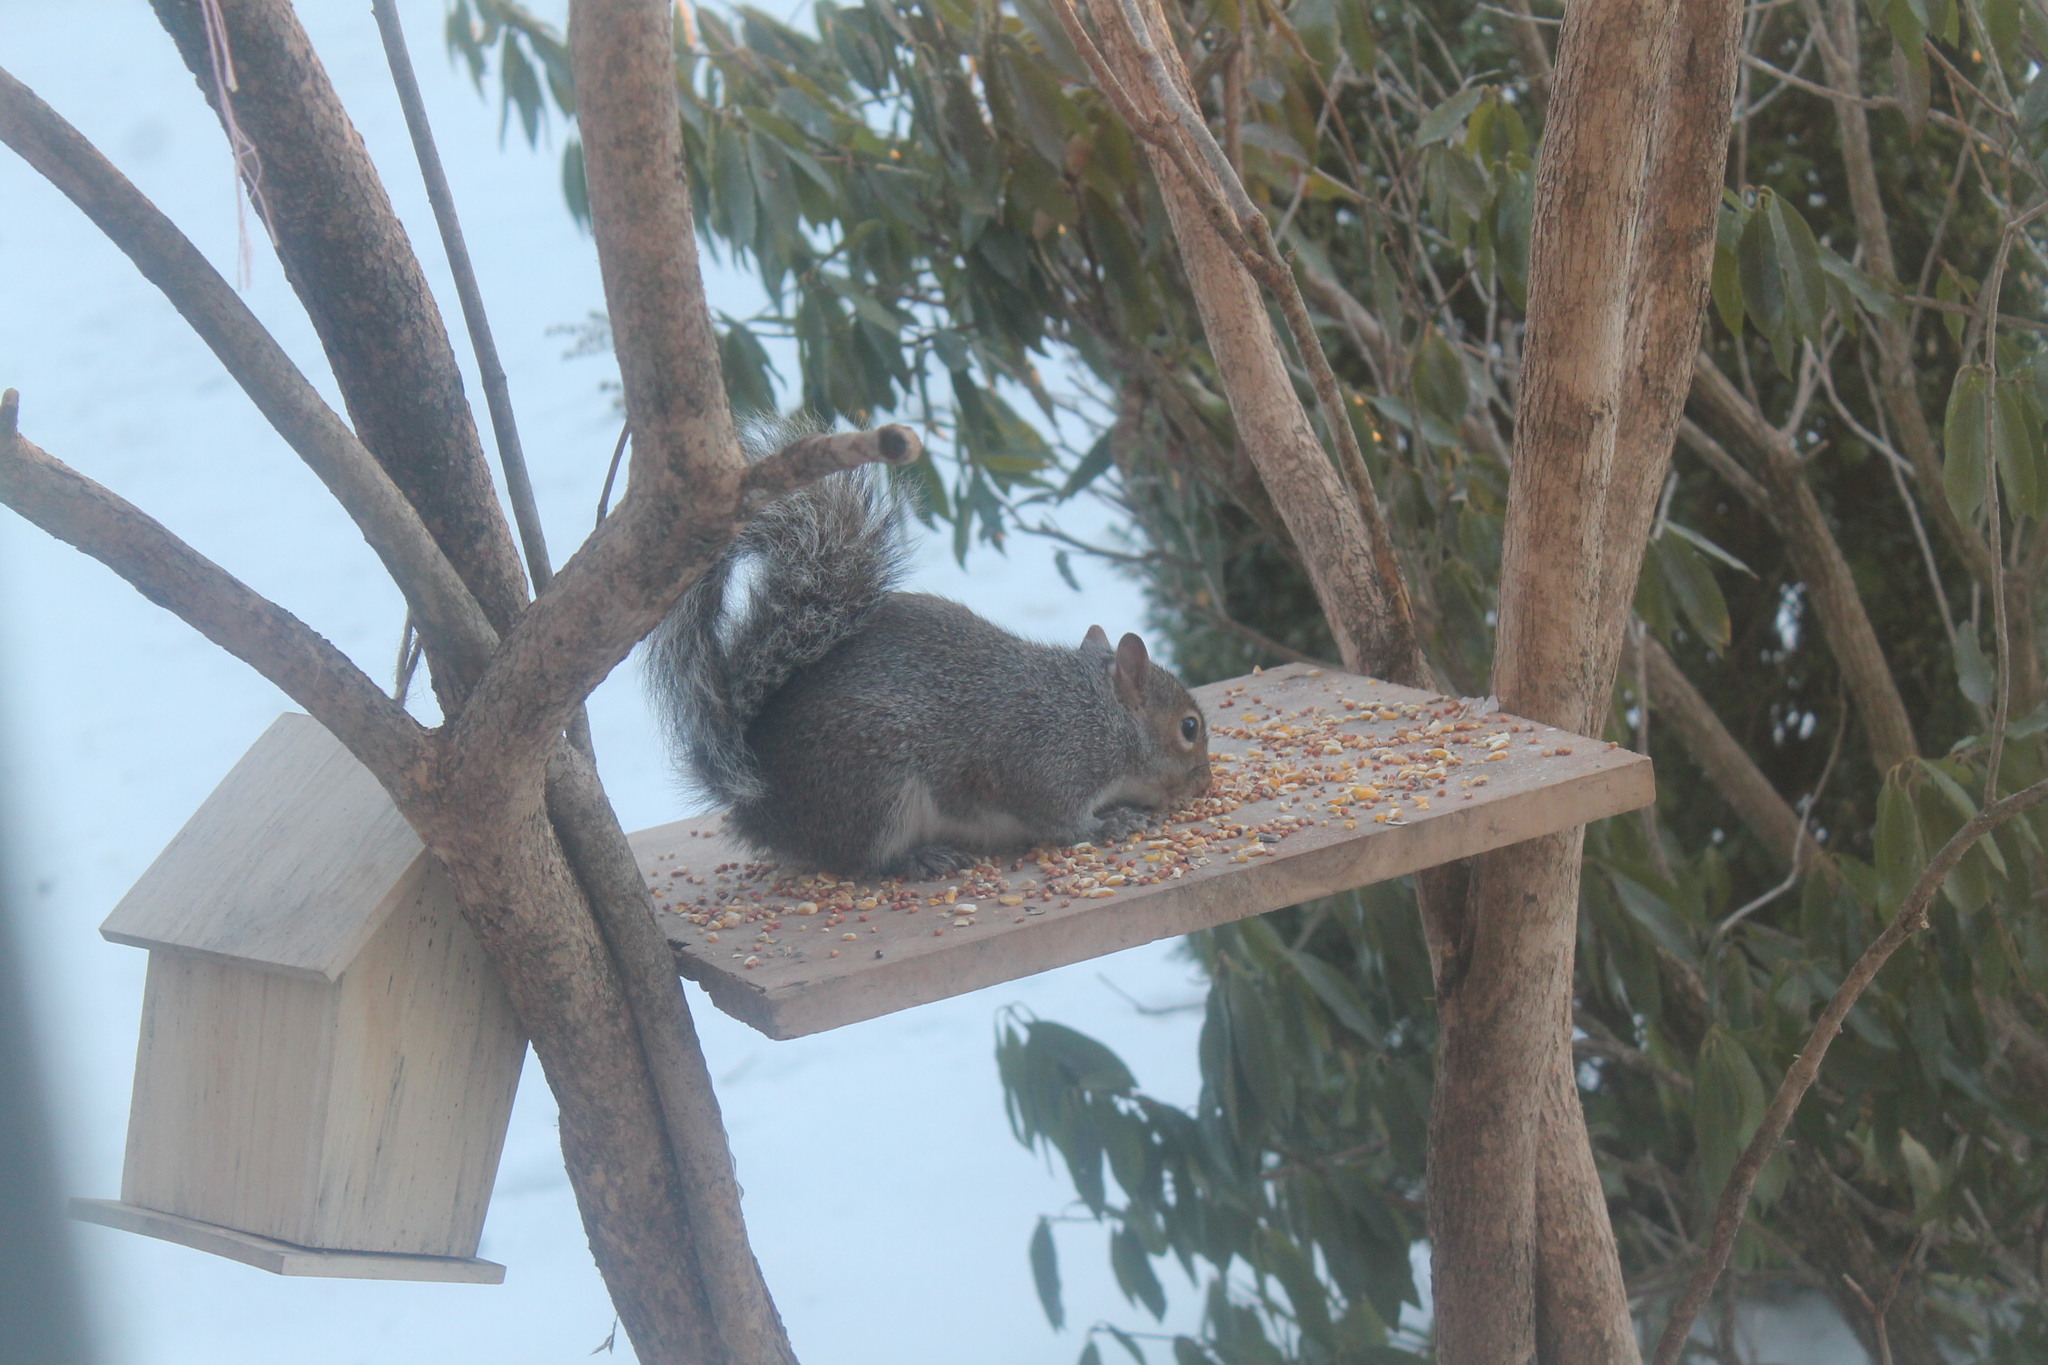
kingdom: Animalia
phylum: Chordata
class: Mammalia
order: Rodentia
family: Sciuridae
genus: Sciurus
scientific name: Sciurus carolinensis
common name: Eastern gray squirrel
